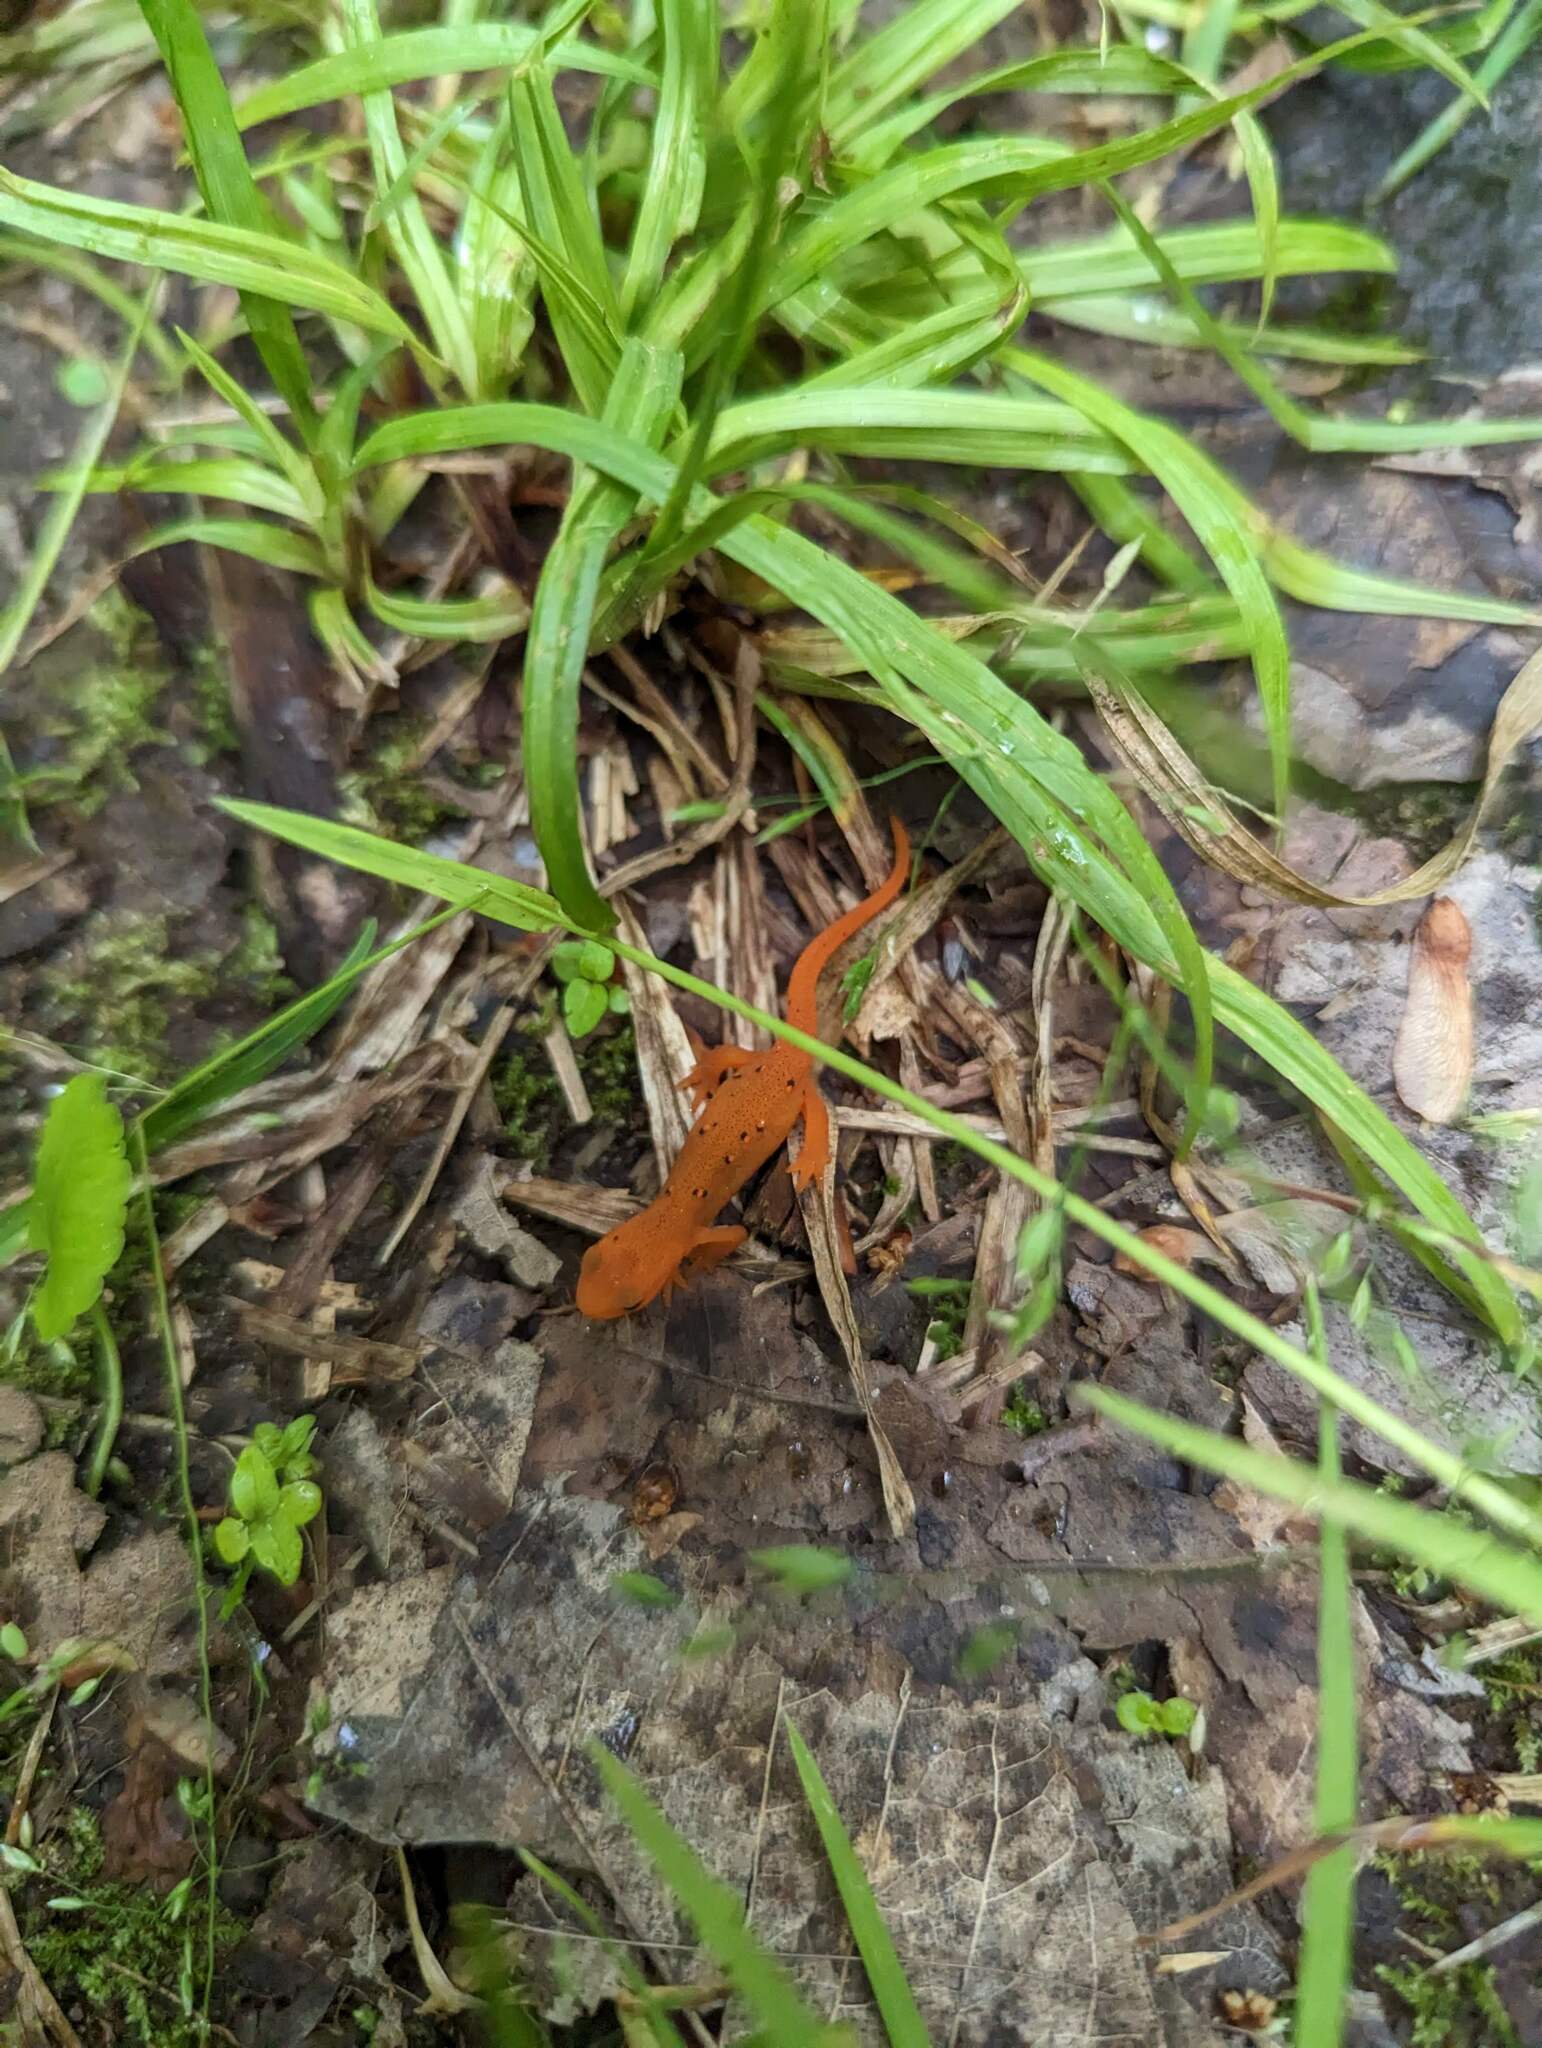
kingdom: Animalia
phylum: Chordata
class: Amphibia
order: Caudata
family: Salamandridae
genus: Notophthalmus
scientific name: Notophthalmus viridescens
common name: Eastern newt
